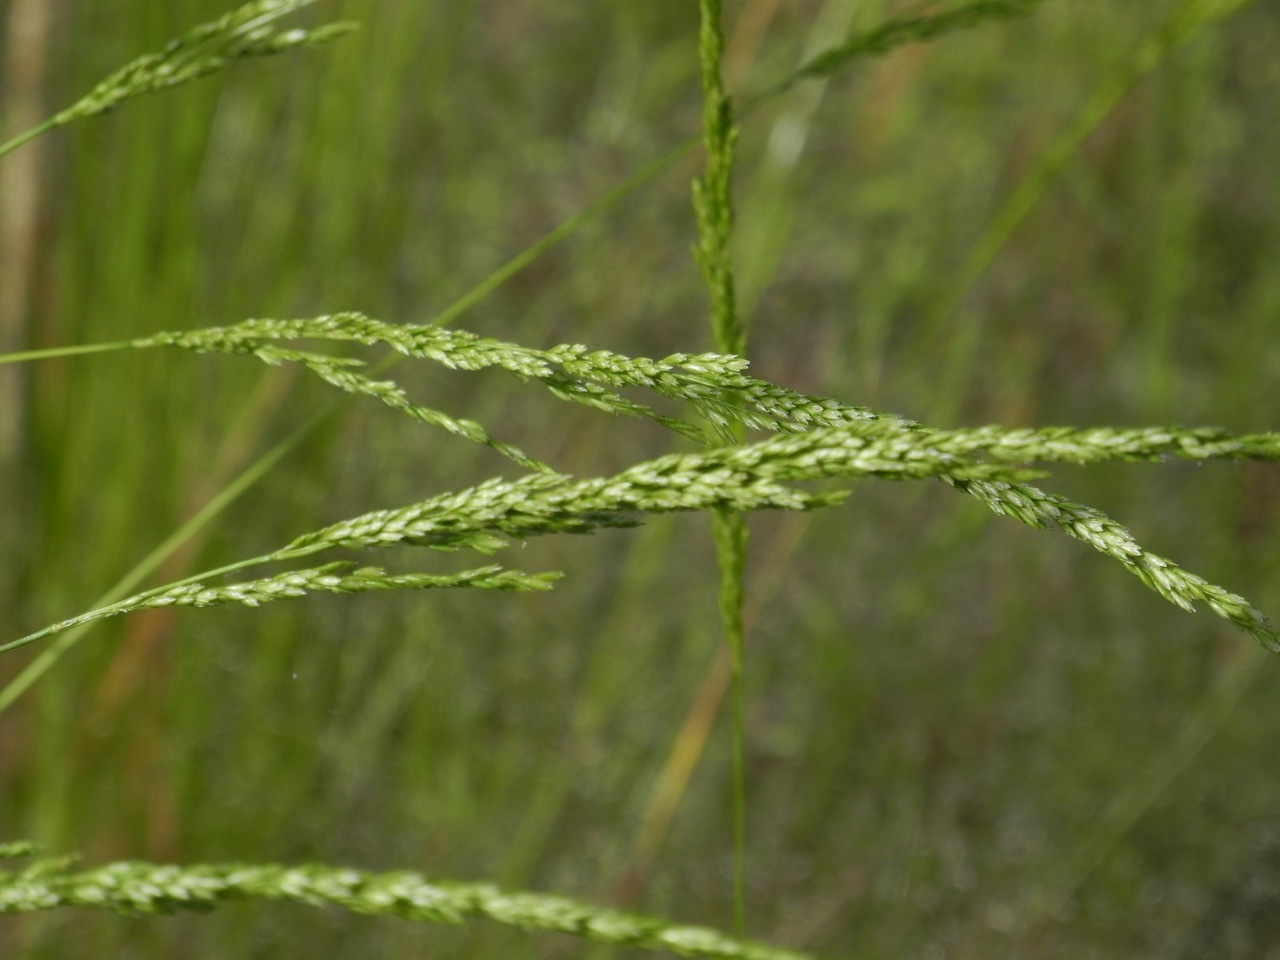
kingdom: Plantae
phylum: Tracheophyta
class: Liliopsida
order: Poales
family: Poaceae
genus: Sphenopholis
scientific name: Sphenopholis nitida
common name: Shiny wedgegrass
